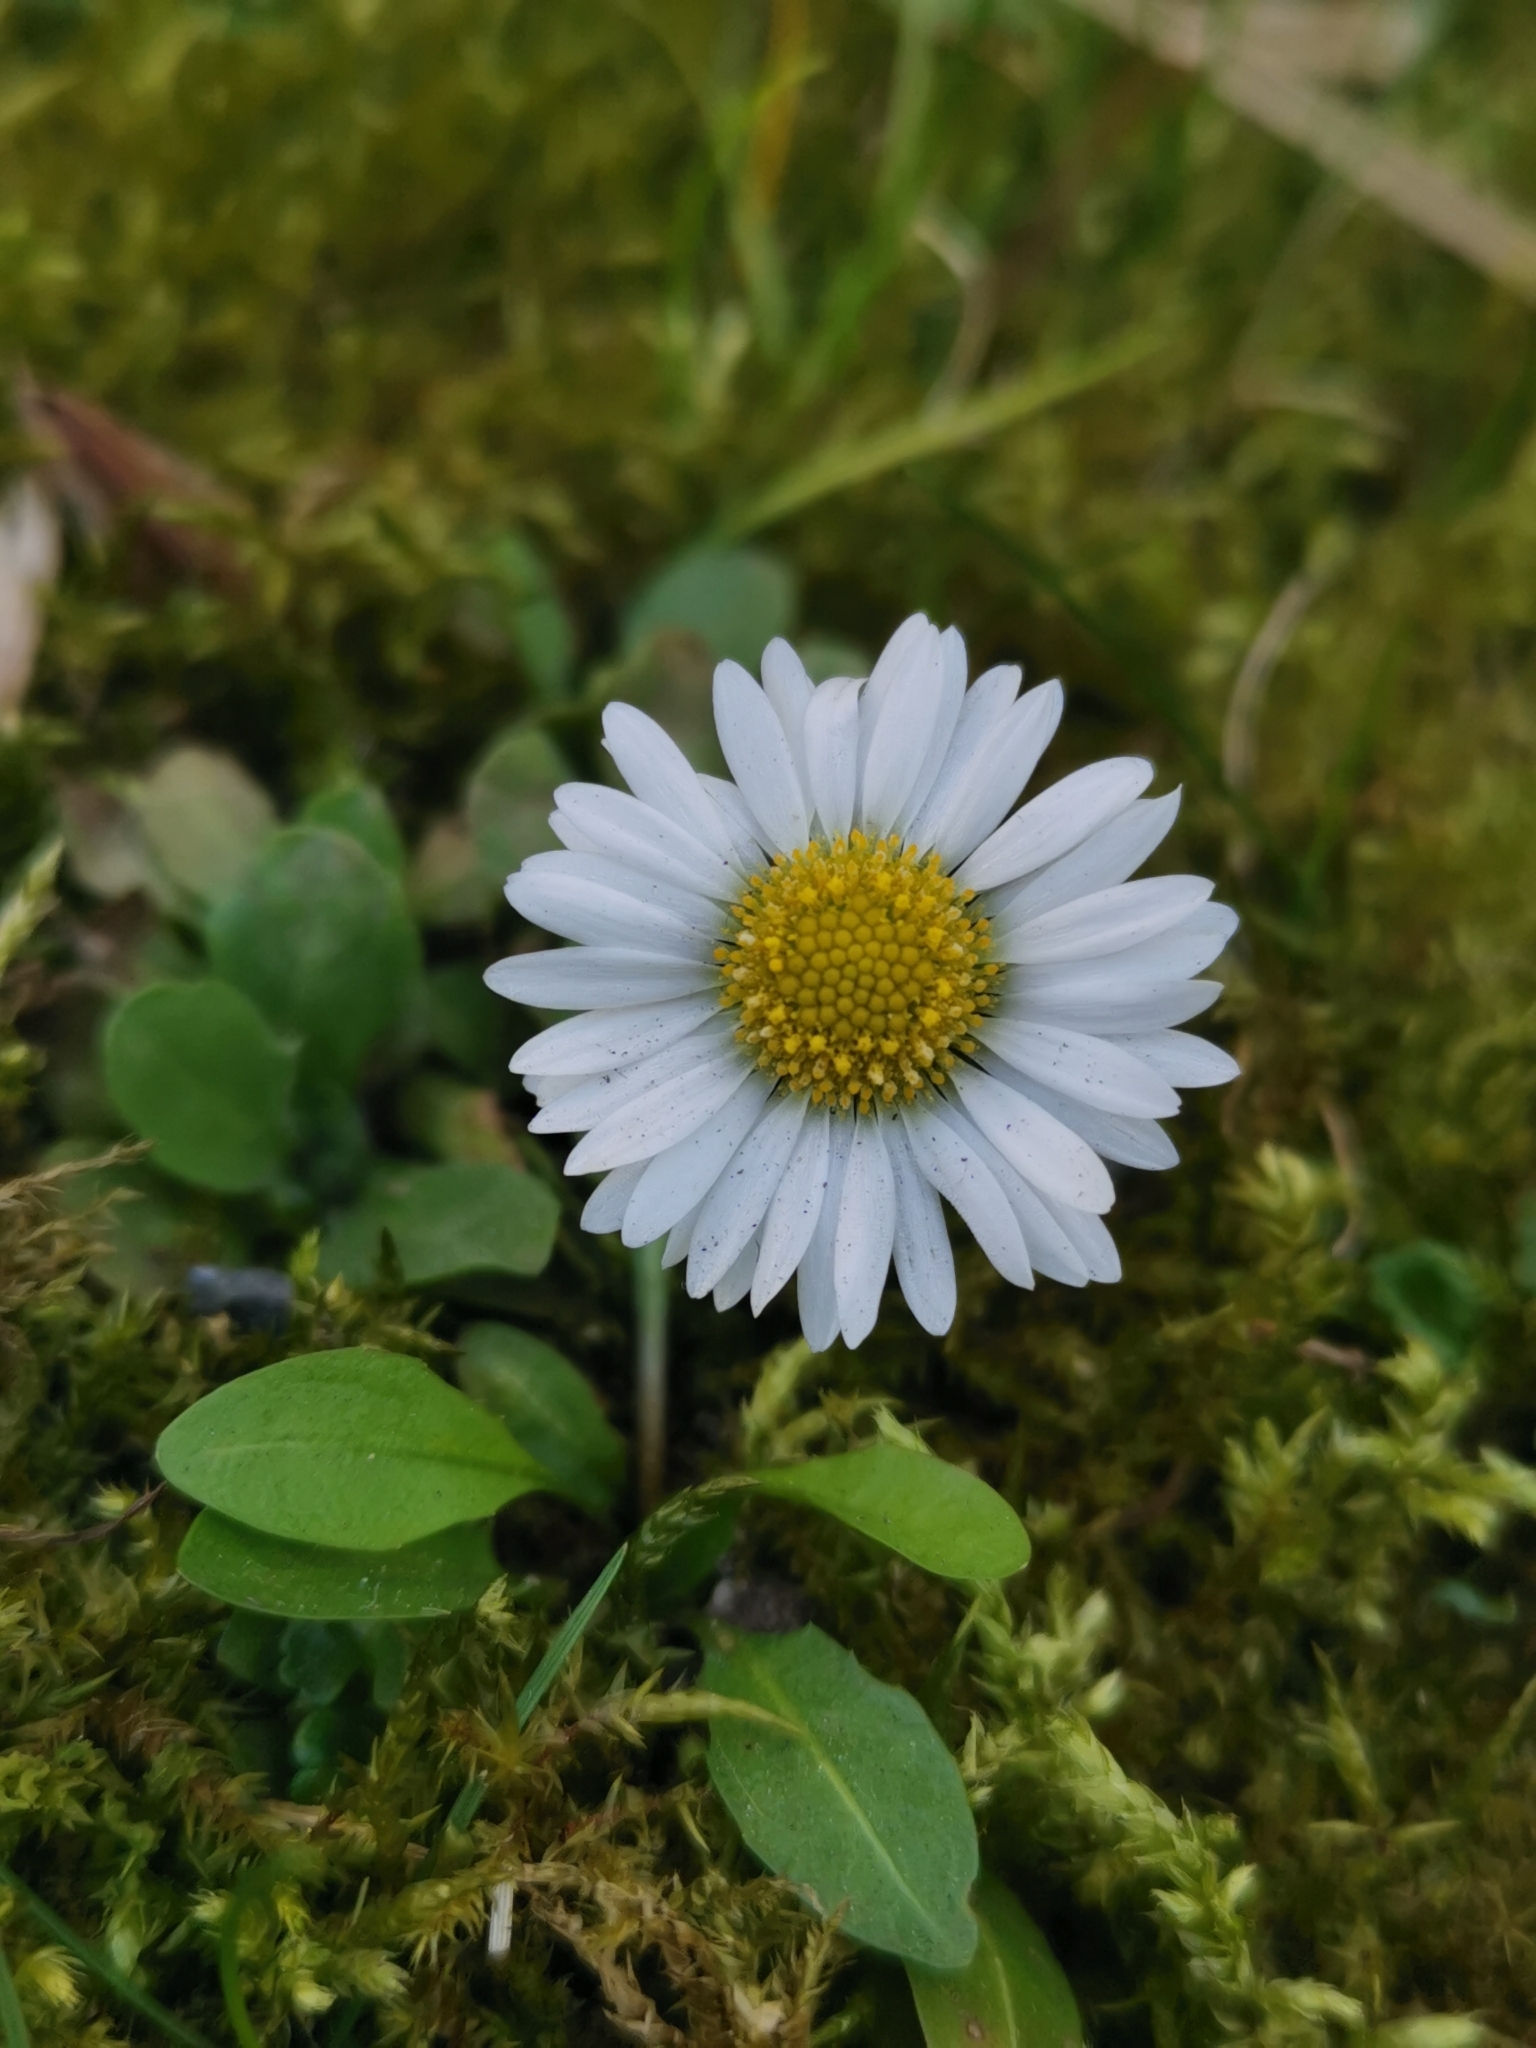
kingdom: Plantae
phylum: Tracheophyta
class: Magnoliopsida
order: Asterales
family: Asteraceae
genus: Bellis
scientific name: Bellis perennis
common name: Lawndaisy
